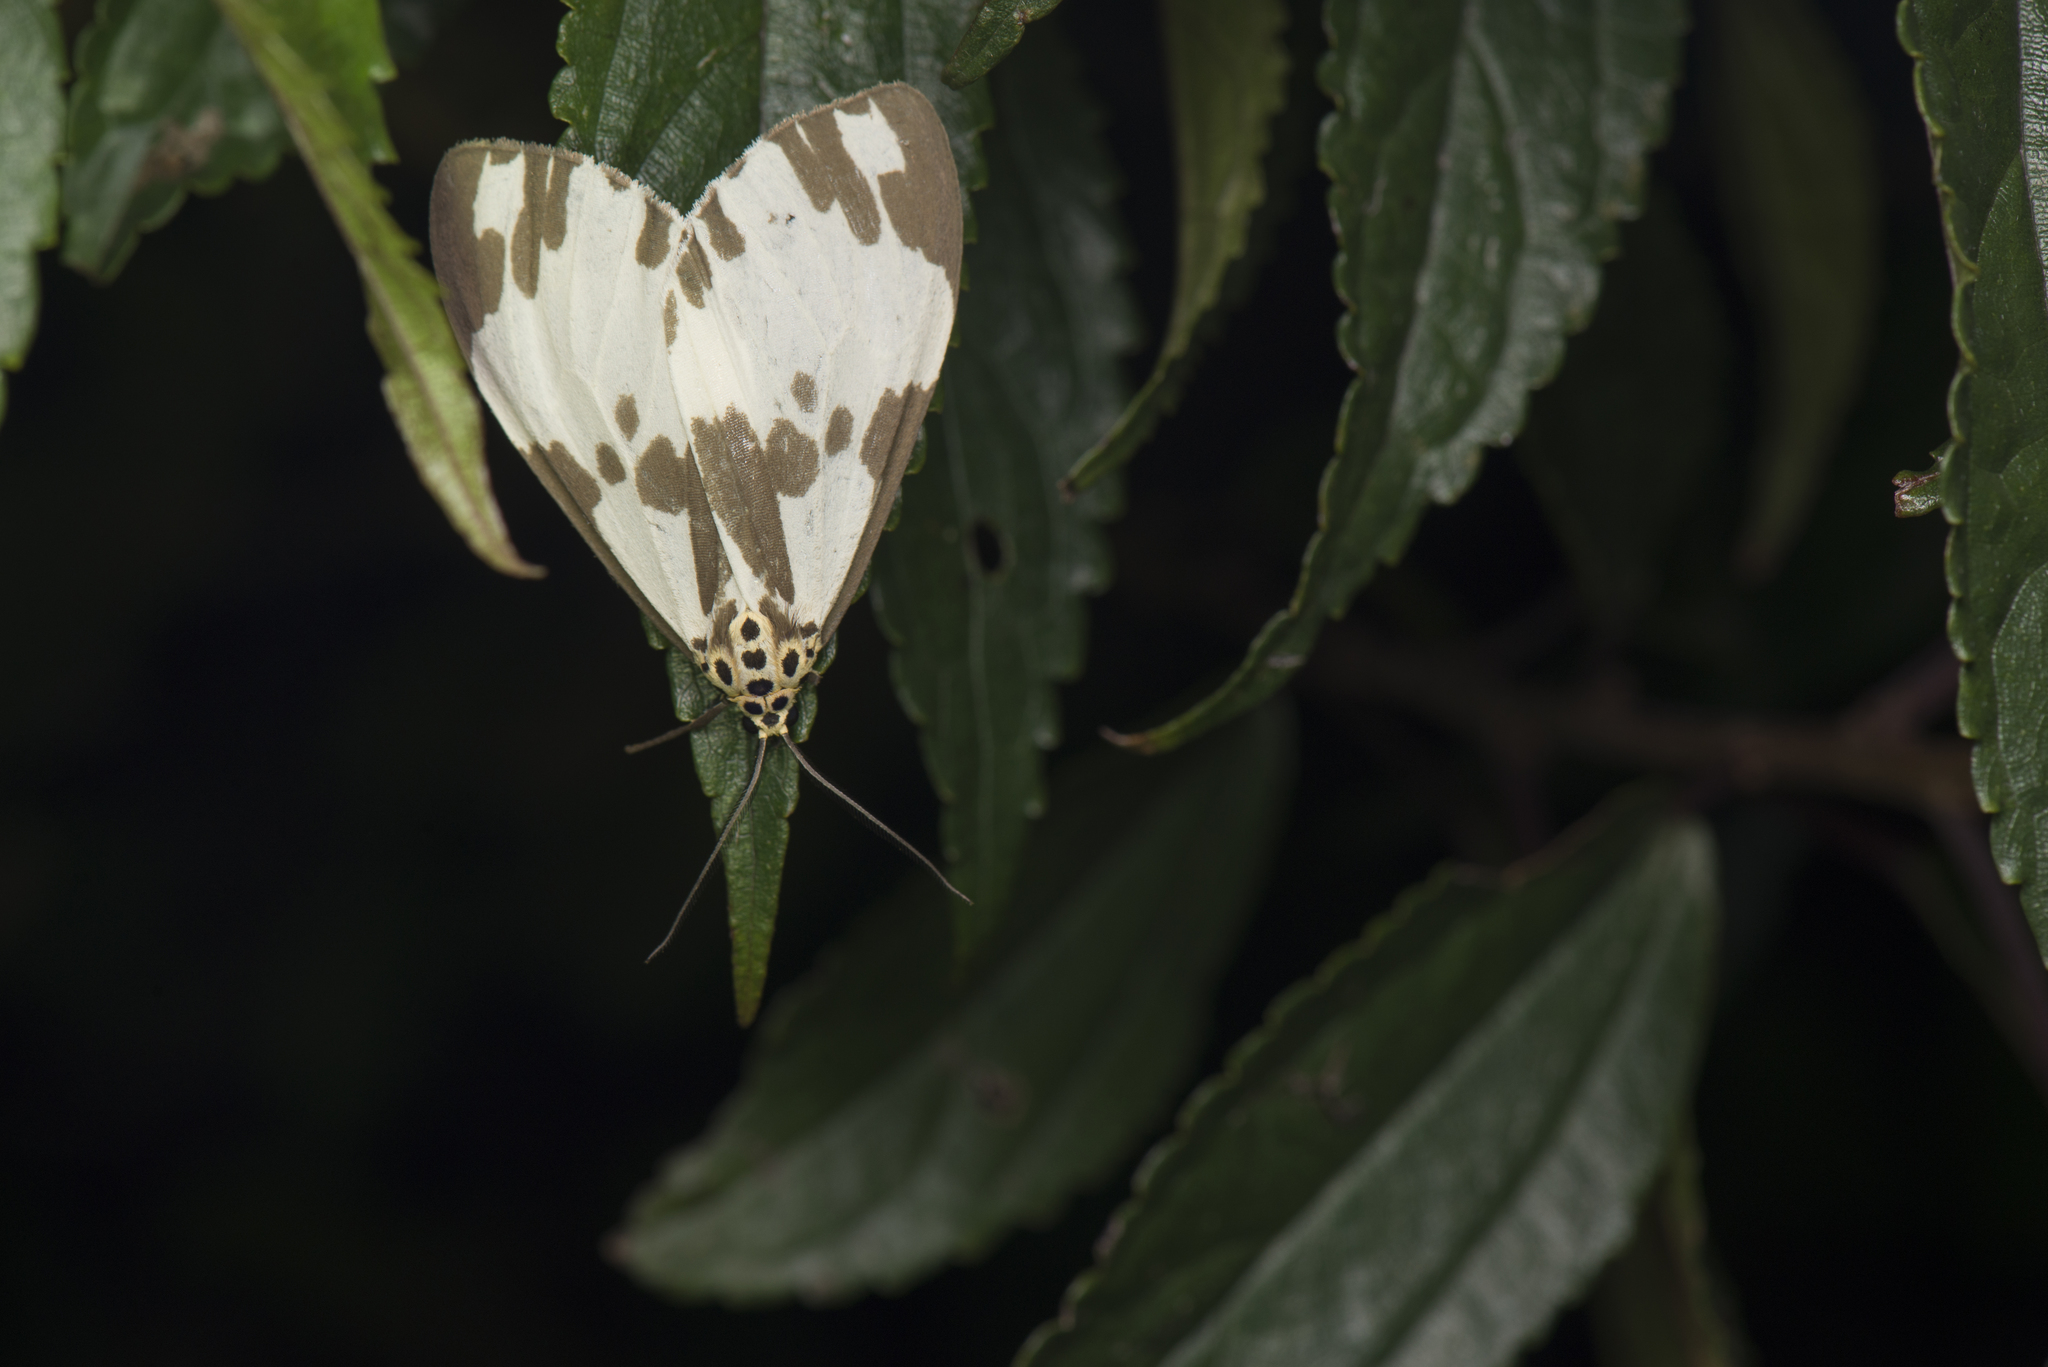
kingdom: Animalia
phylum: Arthropoda
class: Insecta
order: Lepidoptera
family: Erebidae
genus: Nyctemera
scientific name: Nyctemera carissima
